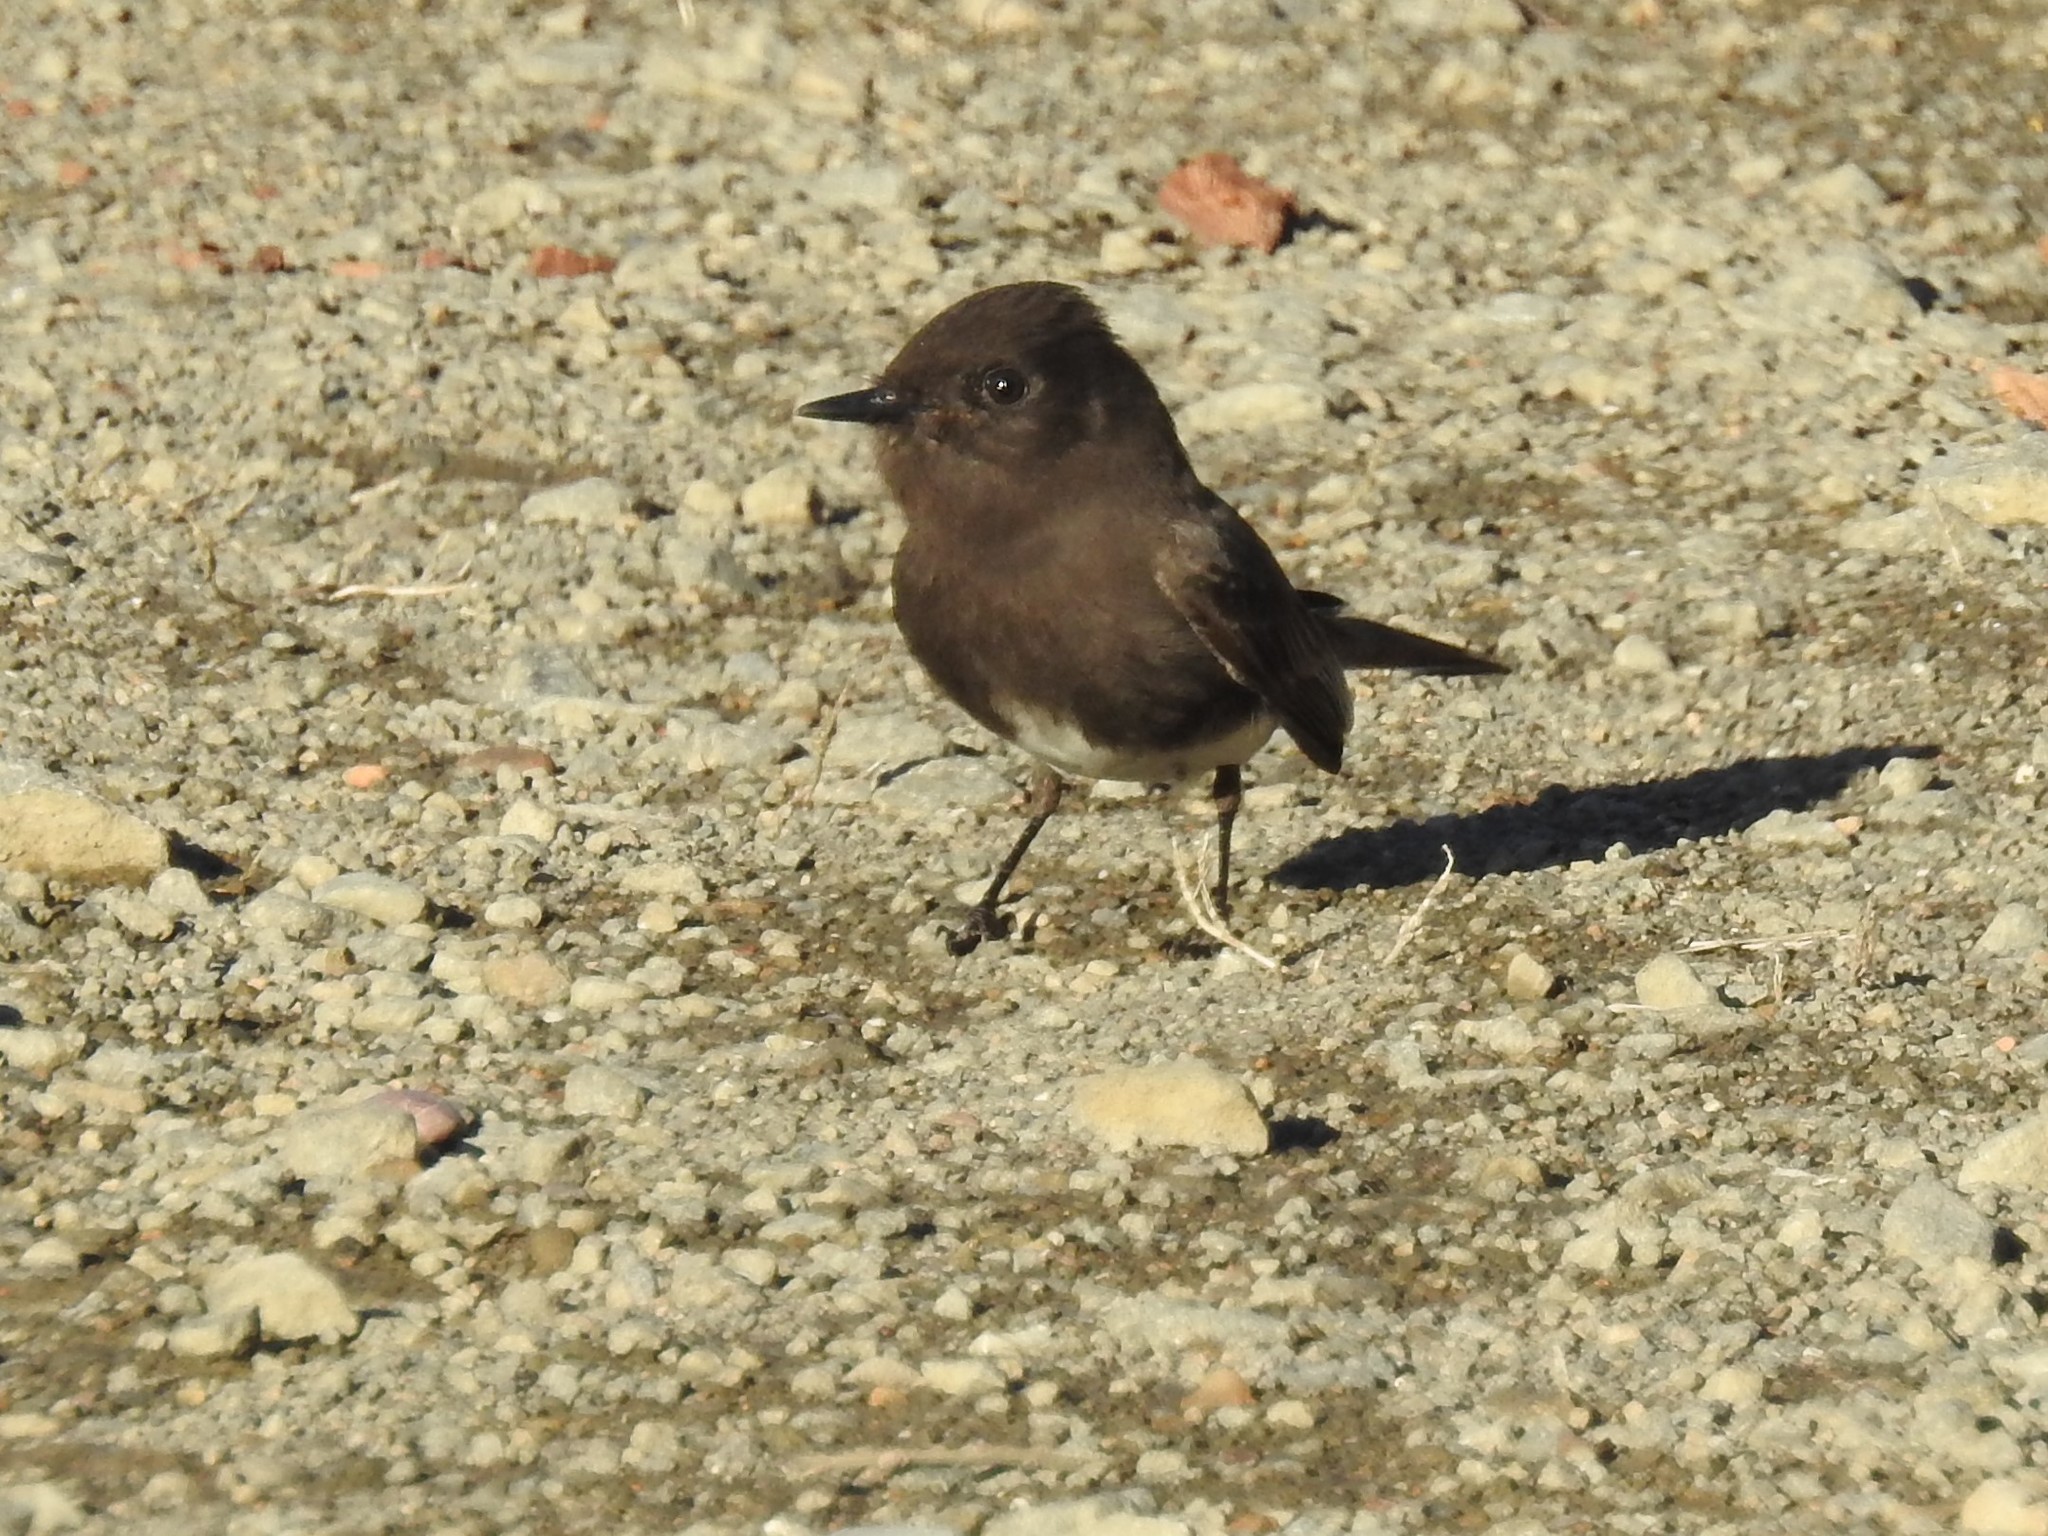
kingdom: Animalia
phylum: Chordata
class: Aves
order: Passeriformes
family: Tyrannidae
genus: Sayornis
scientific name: Sayornis nigricans
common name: Black phoebe
